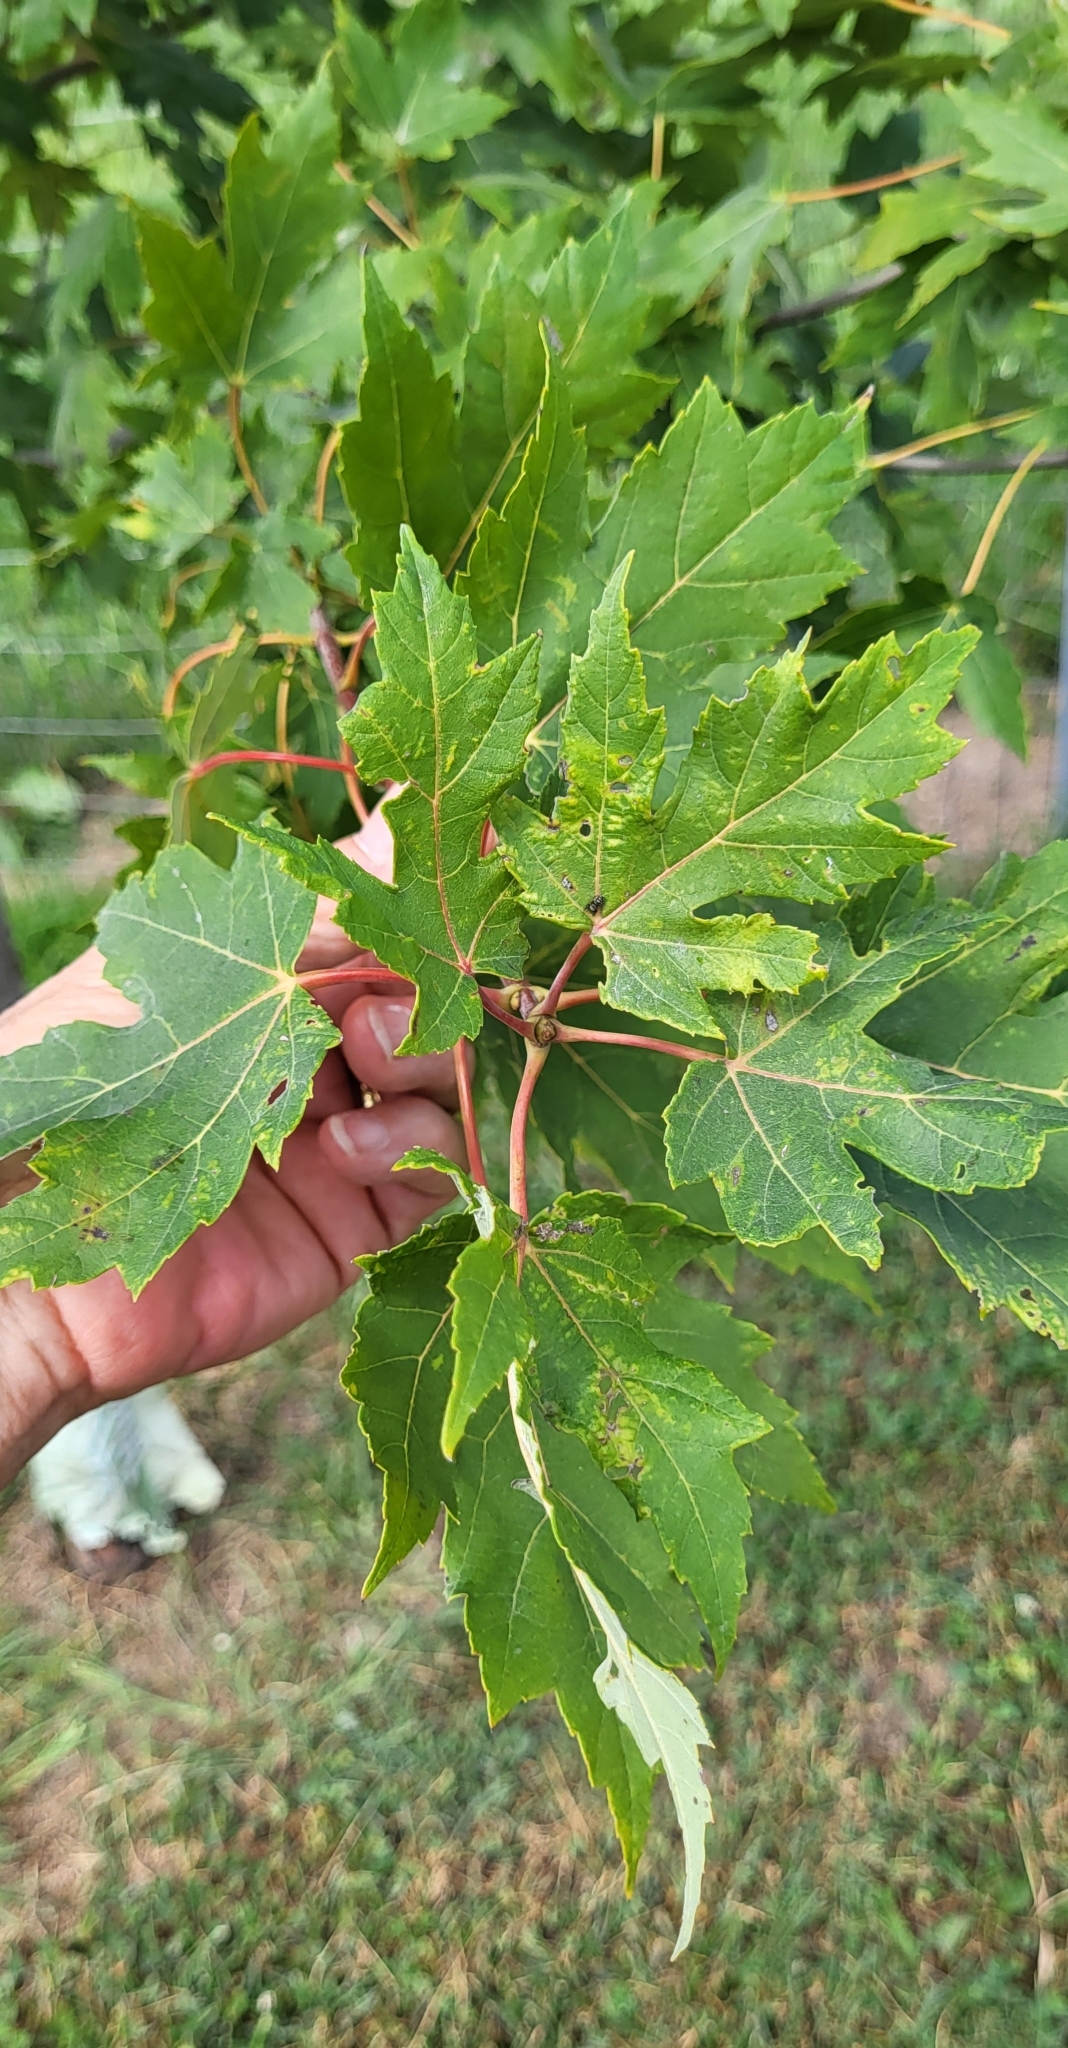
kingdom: Plantae
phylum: Tracheophyta
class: Magnoliopsida
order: Sapindales
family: Sapindaceae
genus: Acer
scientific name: Acer rubrum
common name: Red maple
